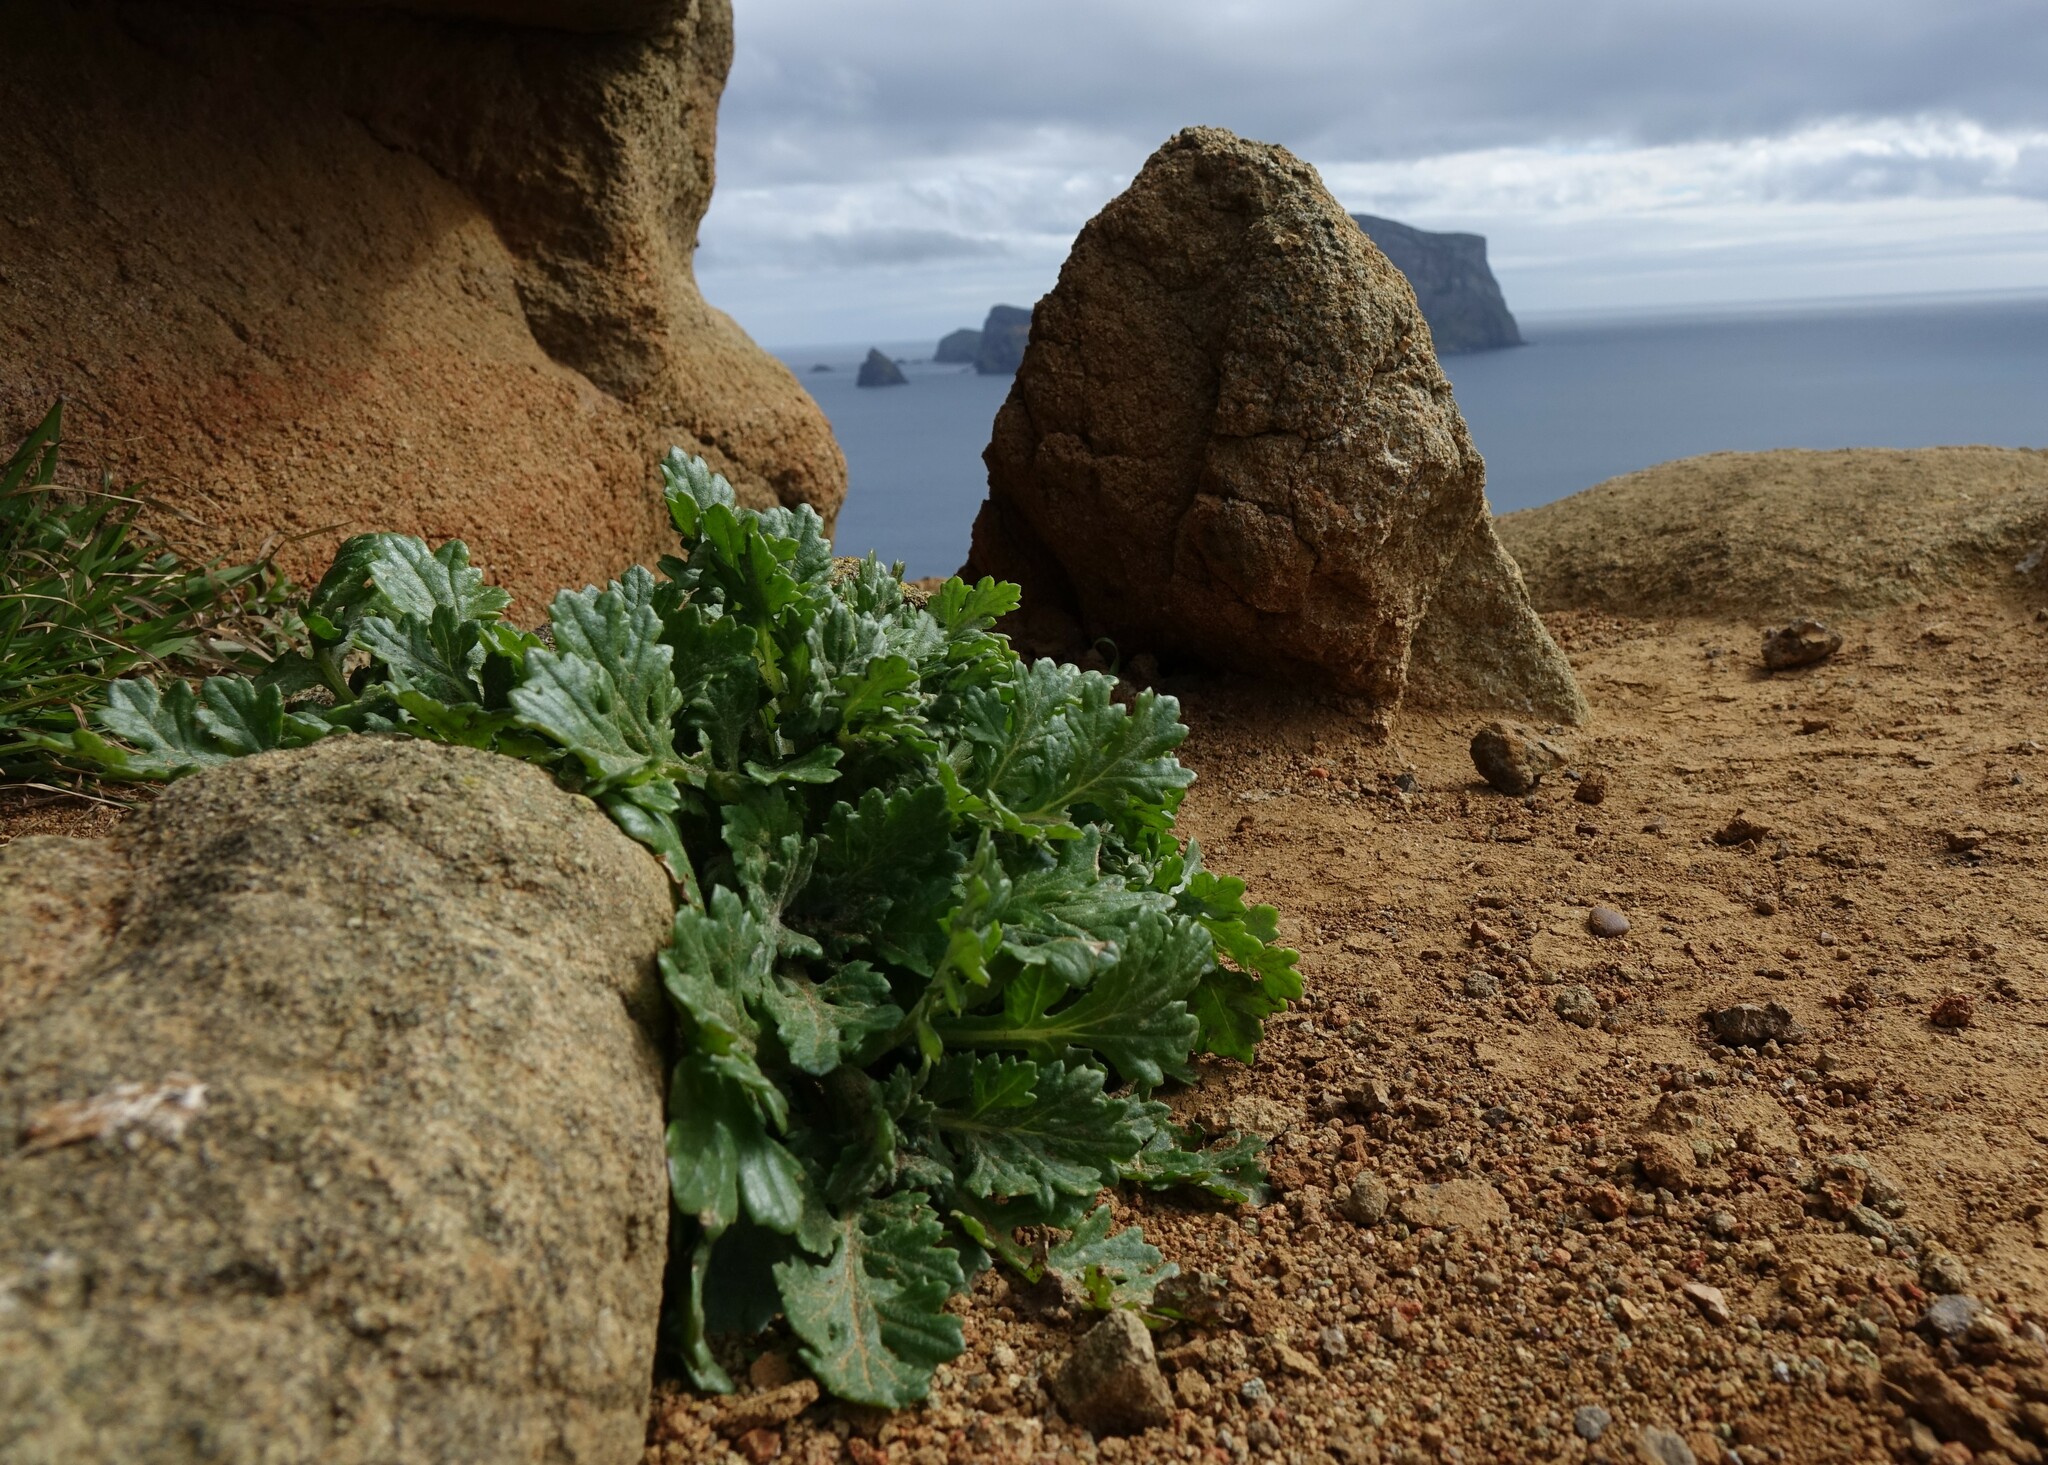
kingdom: Plantae
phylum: Tracheophyta
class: Magnoliopsida
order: Asterales
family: Asteraceae
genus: Senecio
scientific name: Senecio radiolatus
